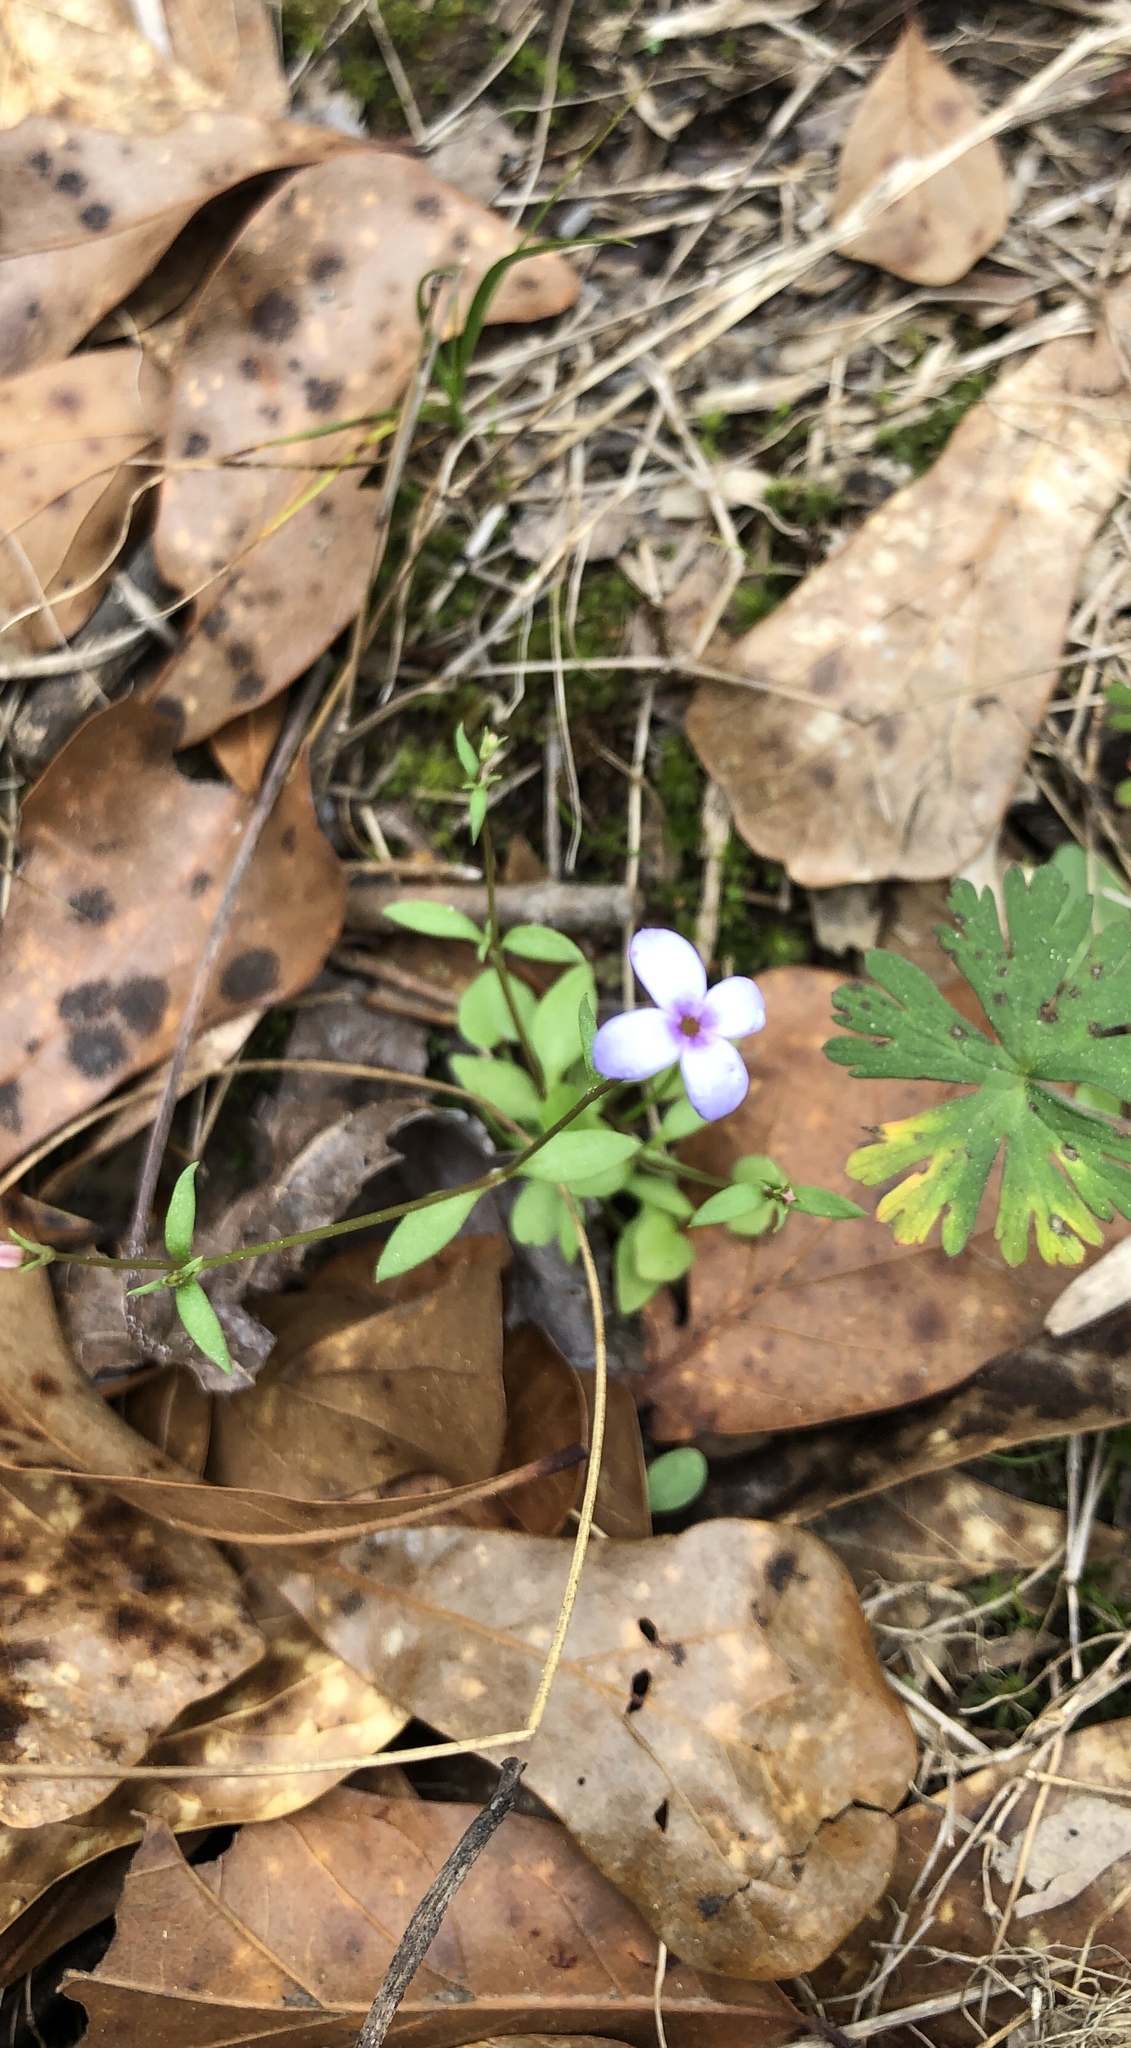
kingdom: Plantae
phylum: Tracheophyta
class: Magnoliopsida
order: Gentianales
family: Rubiaceae
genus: Houstonia
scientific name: Houstonia pusilla
